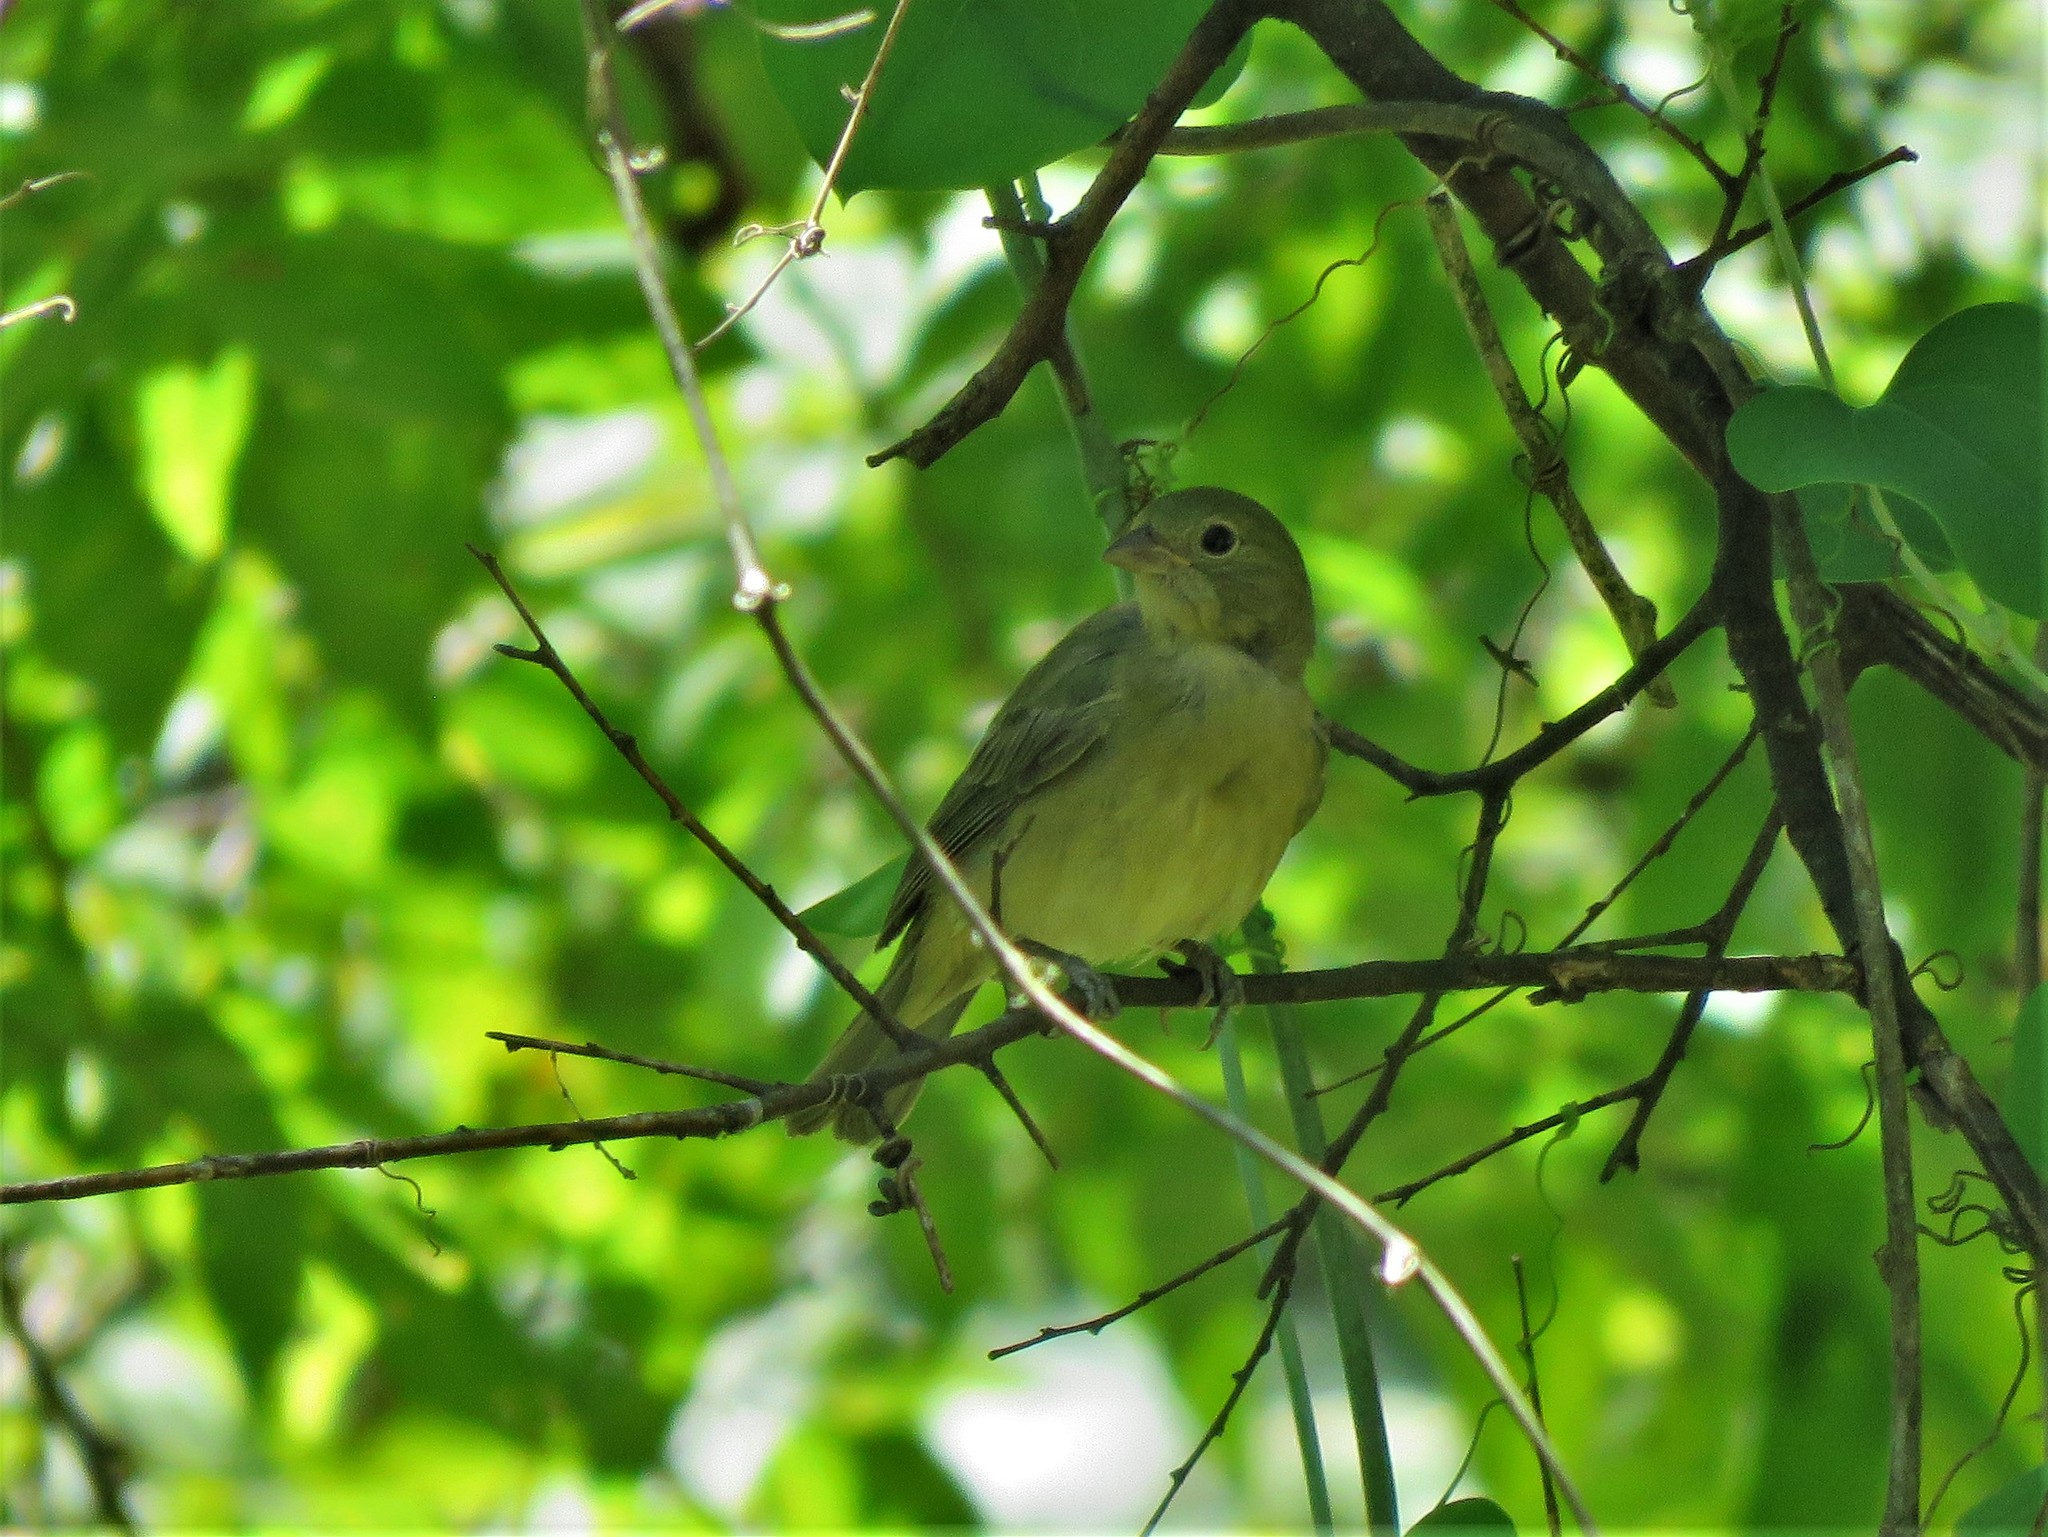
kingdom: Animalia
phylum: Chordata
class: Aves
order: Passeriformes
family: Cardinalidae
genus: Passerina
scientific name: Passerina ciris
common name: Painted bunting
